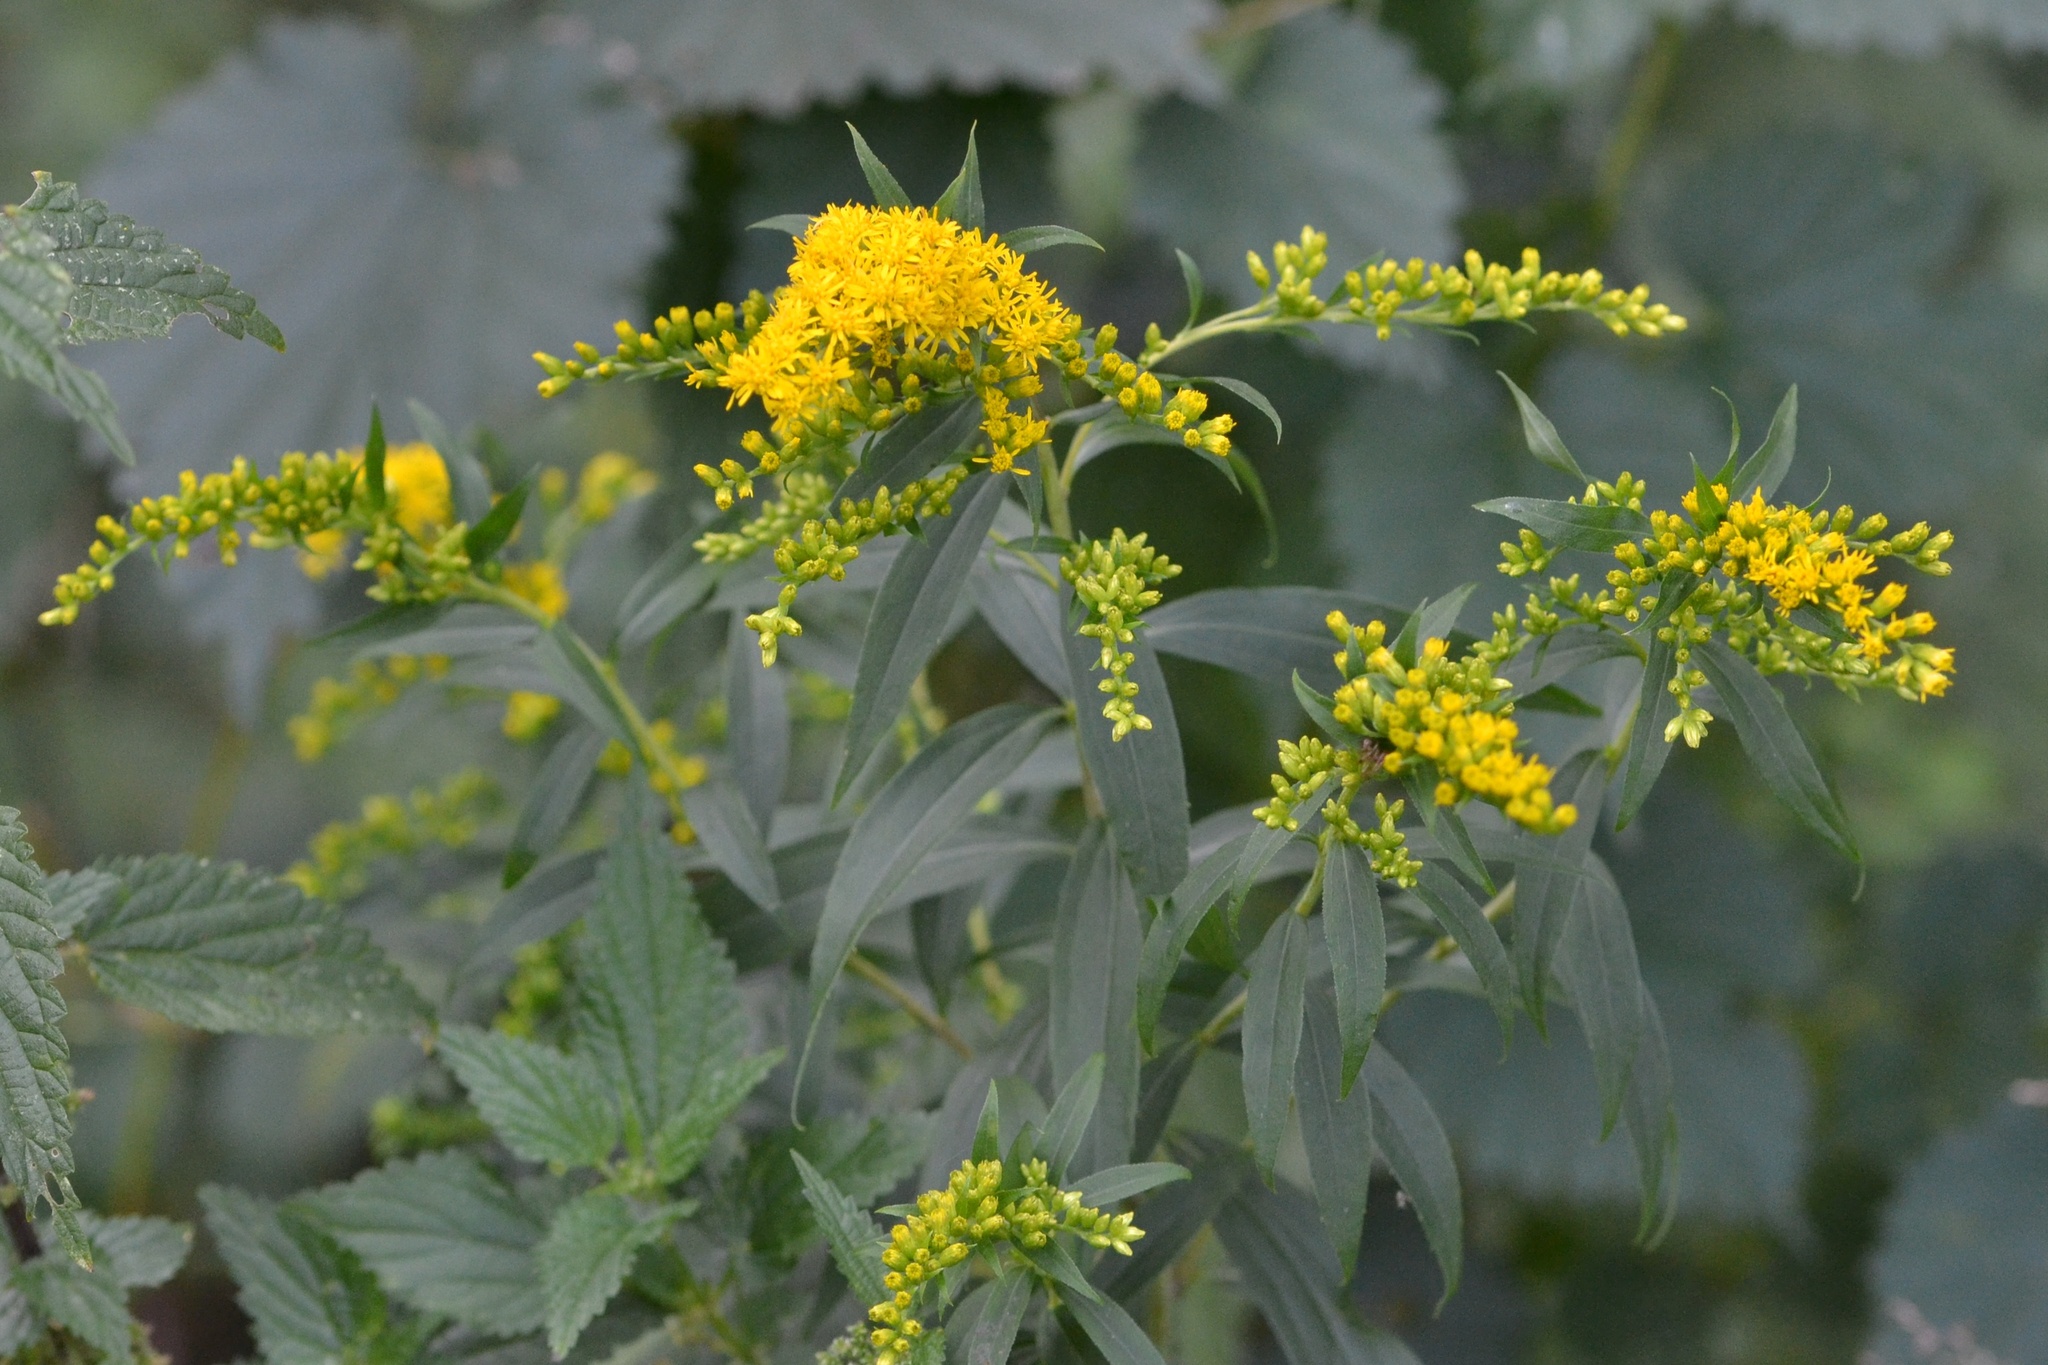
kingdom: Plantae
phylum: Tracheophyta
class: Magnoliopsida
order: Asterales
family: Asteraceae
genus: Solidago
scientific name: Solidago gigantea
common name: Giant goldenrod
